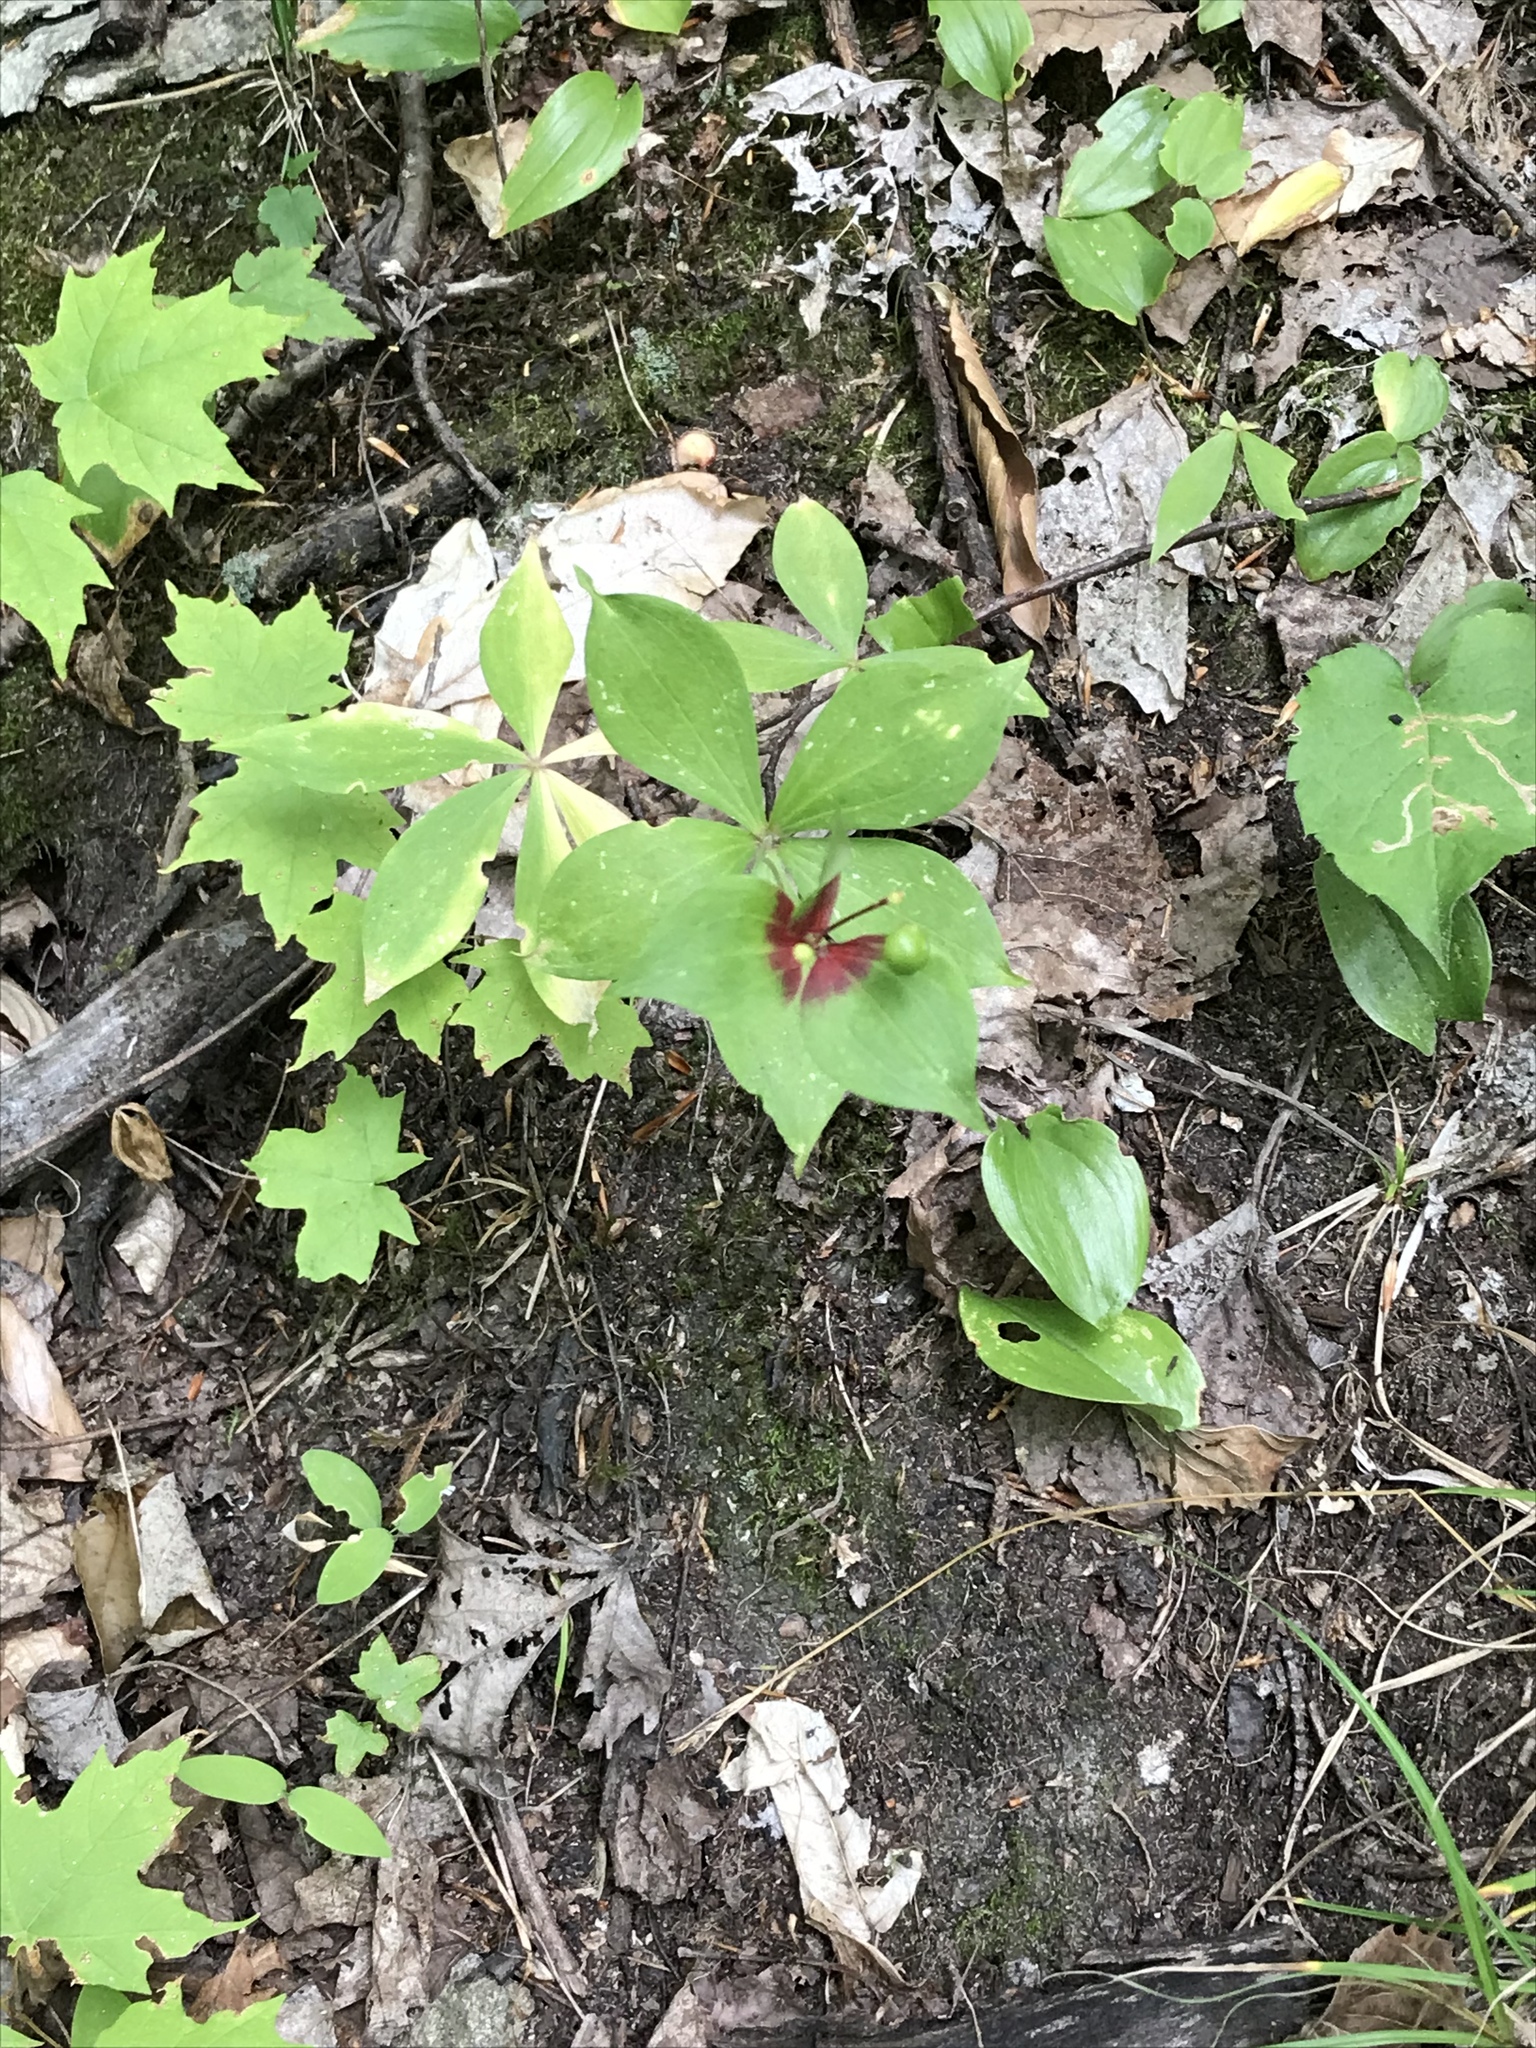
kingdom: Plantae
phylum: Tracheophyta
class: Liliopsida
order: Liliales
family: Liliaceae
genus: Medeola
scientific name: Medeola virginiana
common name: Indian cucumber-root
